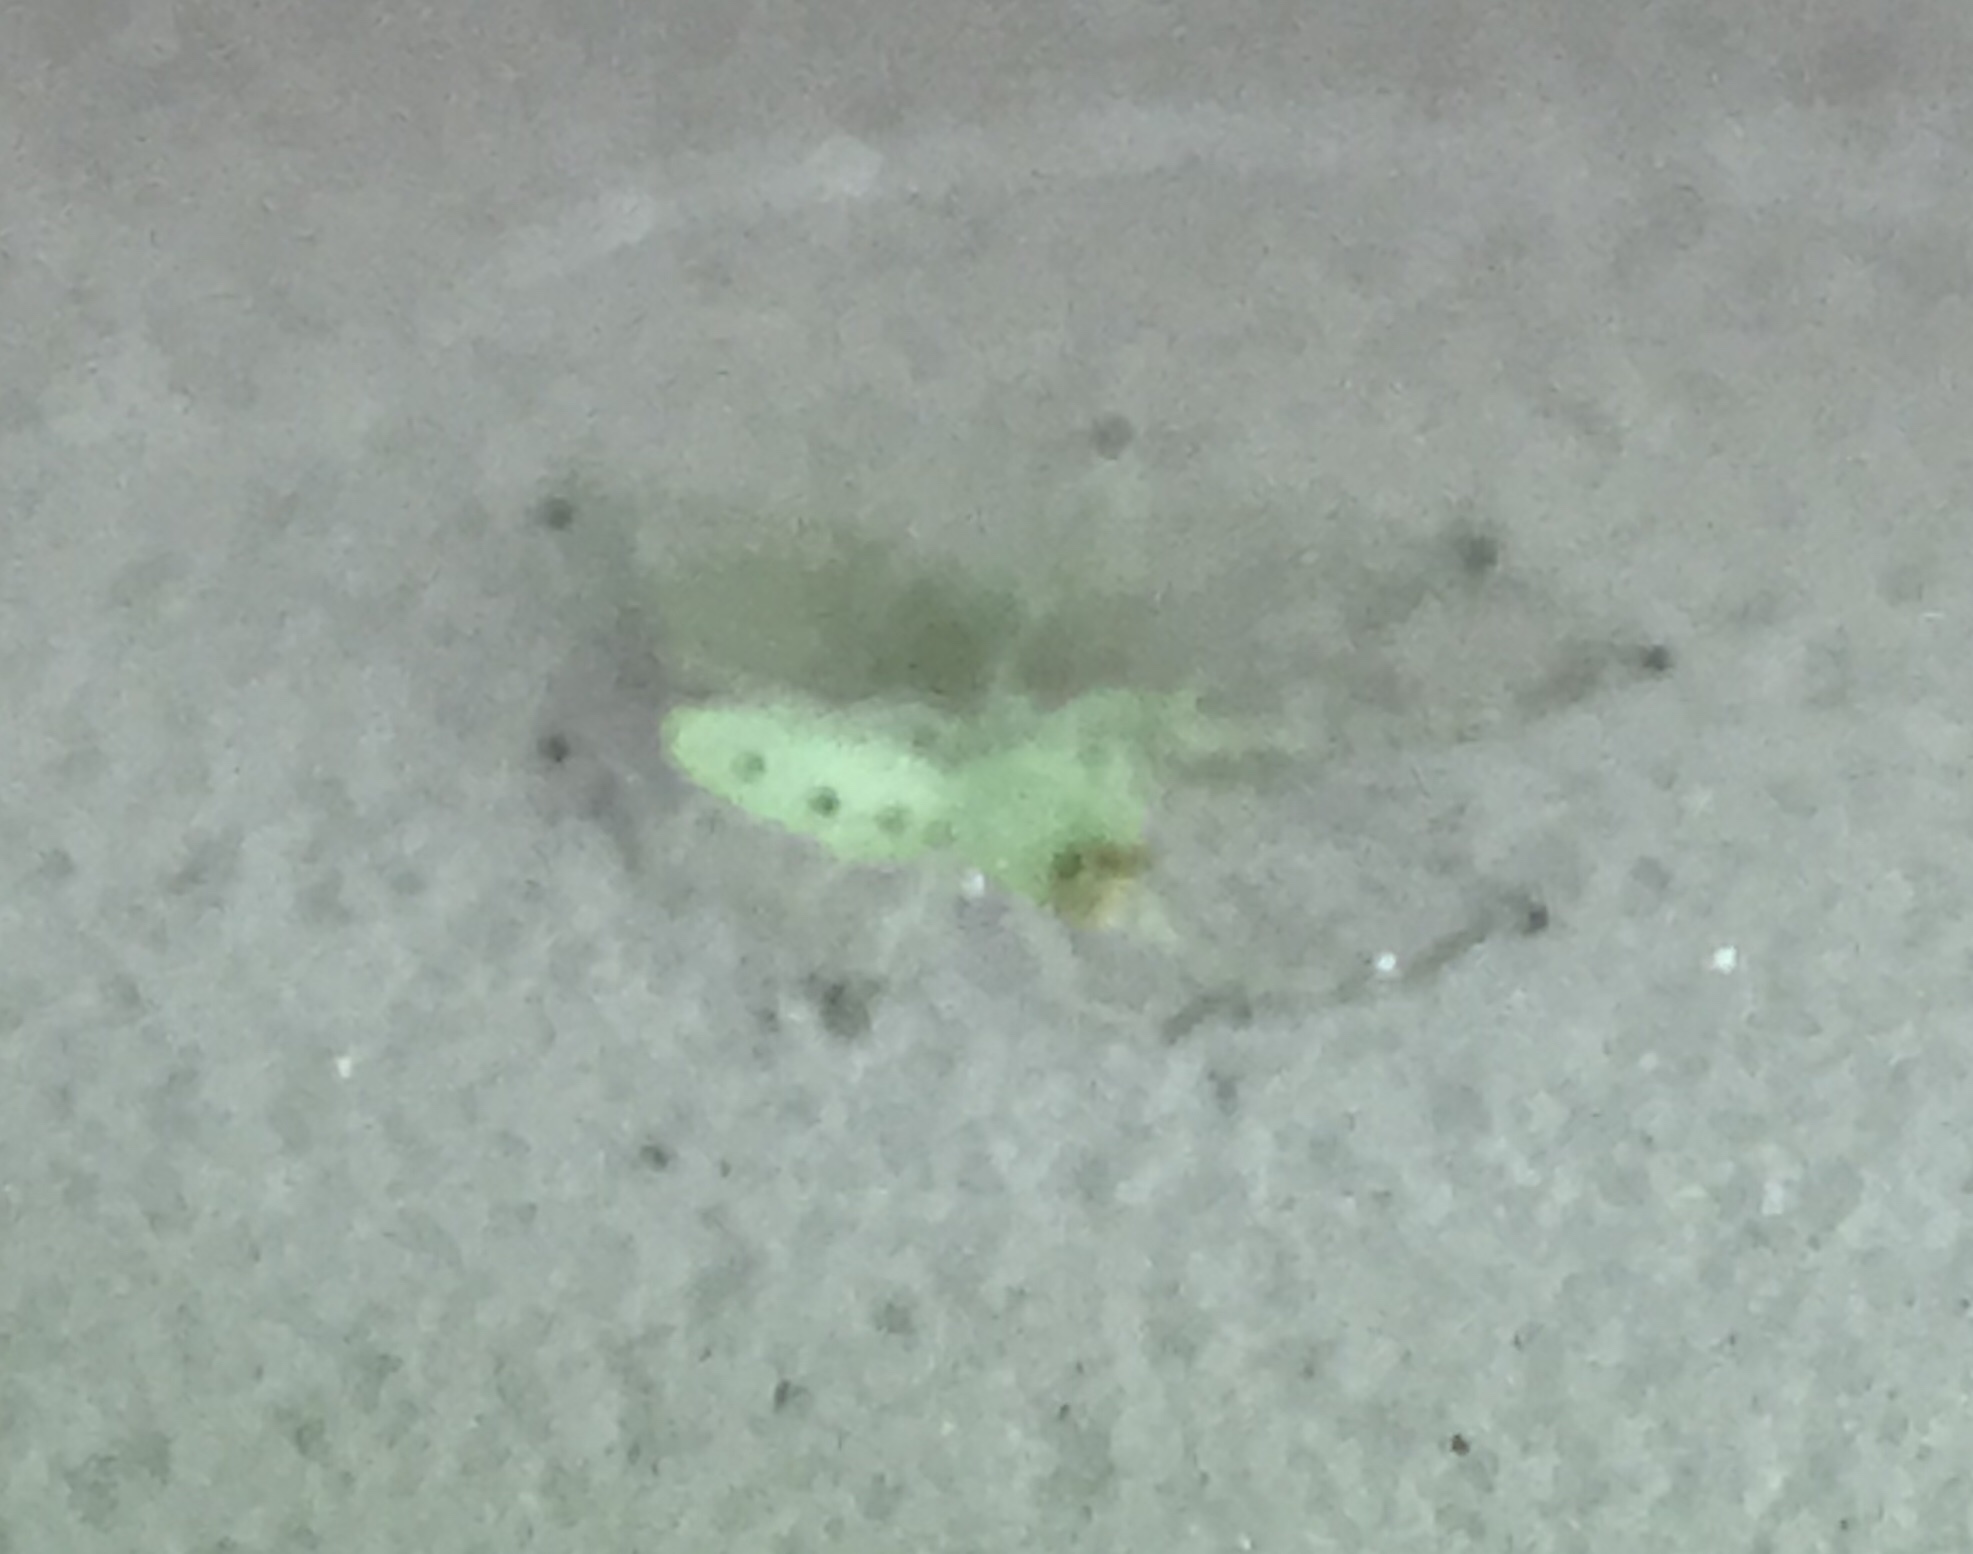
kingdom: Animalia
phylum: Arthropoda
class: Arachnida
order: Araneae
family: Salticidae
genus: Lyssomanes
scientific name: Lyssomanes viridis
